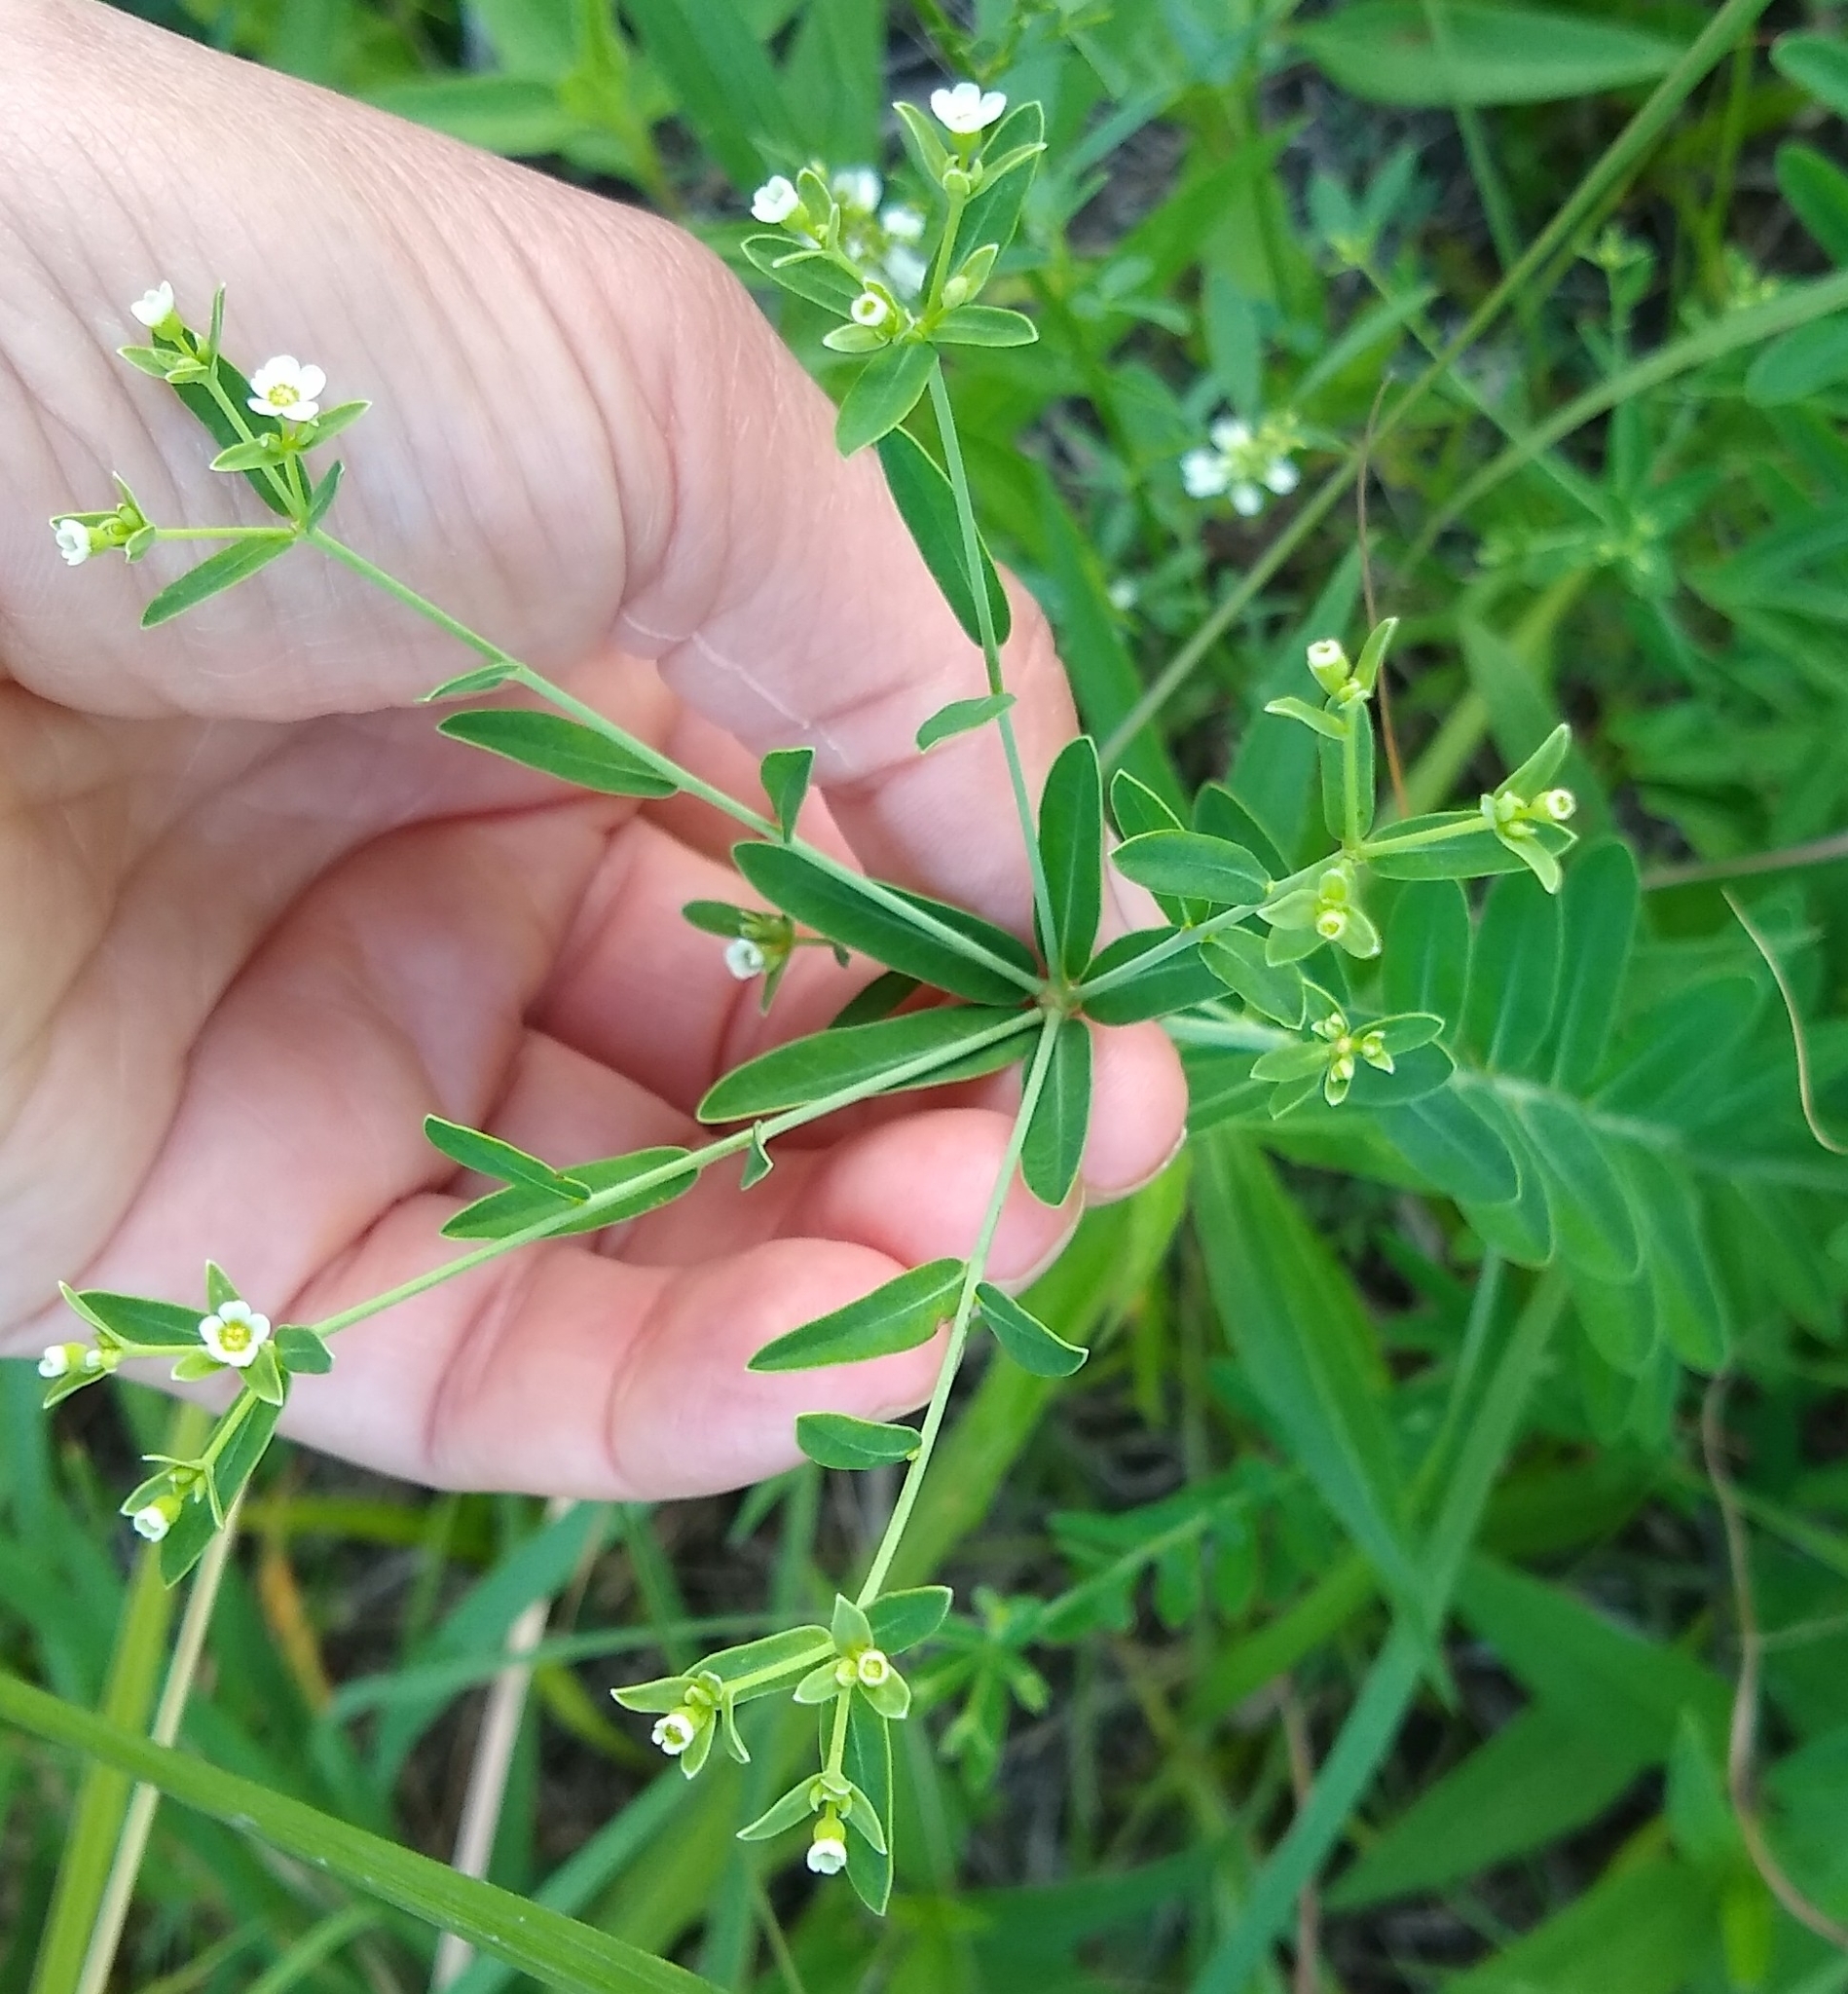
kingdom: Plantae
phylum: Tracheophyta
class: Magnoliopsida
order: Malpighiales
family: Euphorbiaceae
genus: Euphorbia
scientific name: Euphorbia corollata
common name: Flowering spurge
